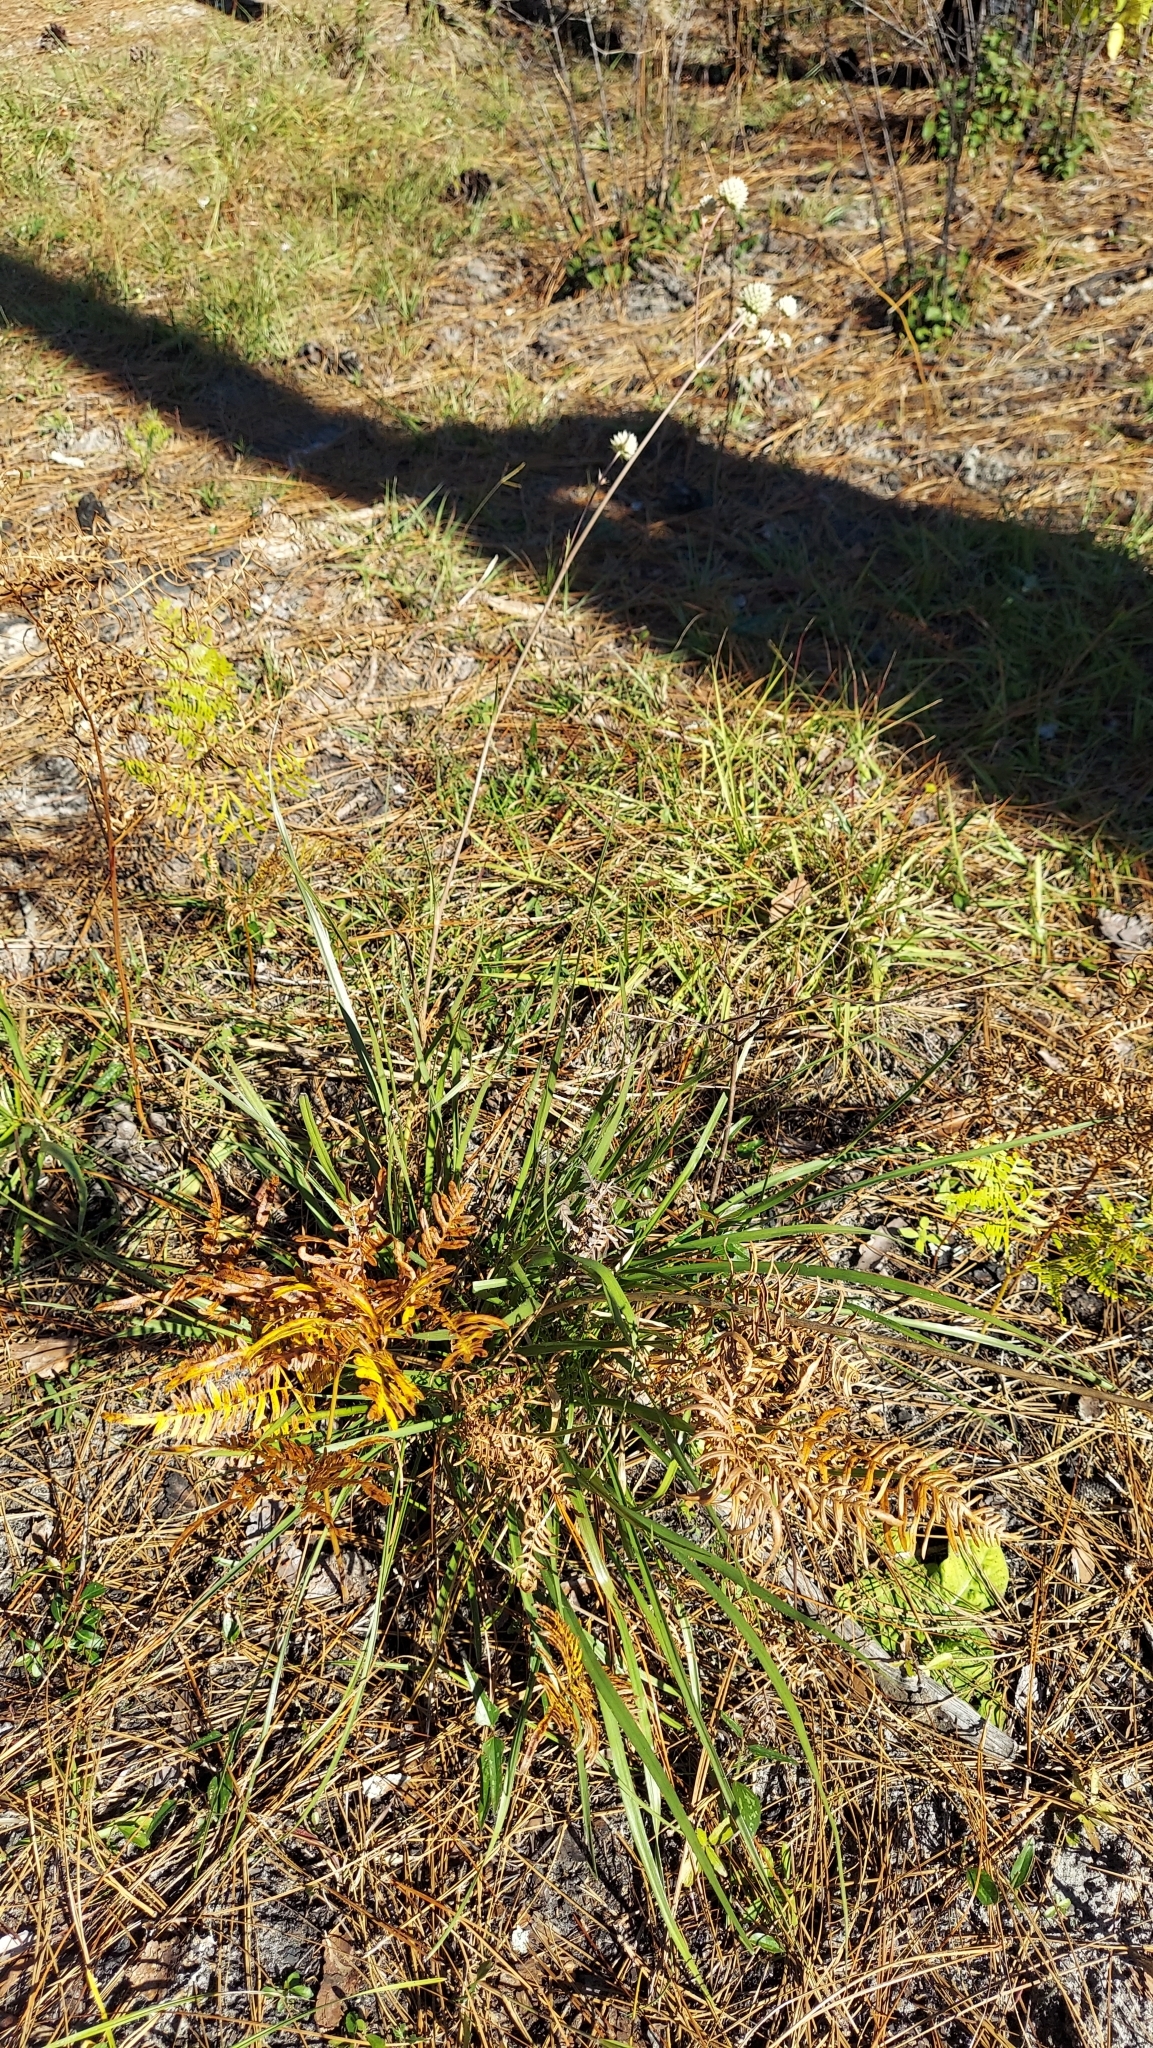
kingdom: Plantae
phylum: Tracheophyta
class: Magnoliopsida
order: Apiales
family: Apiaceae
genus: Eryngium
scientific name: Eryngium yuccifolium
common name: Button eryngo
